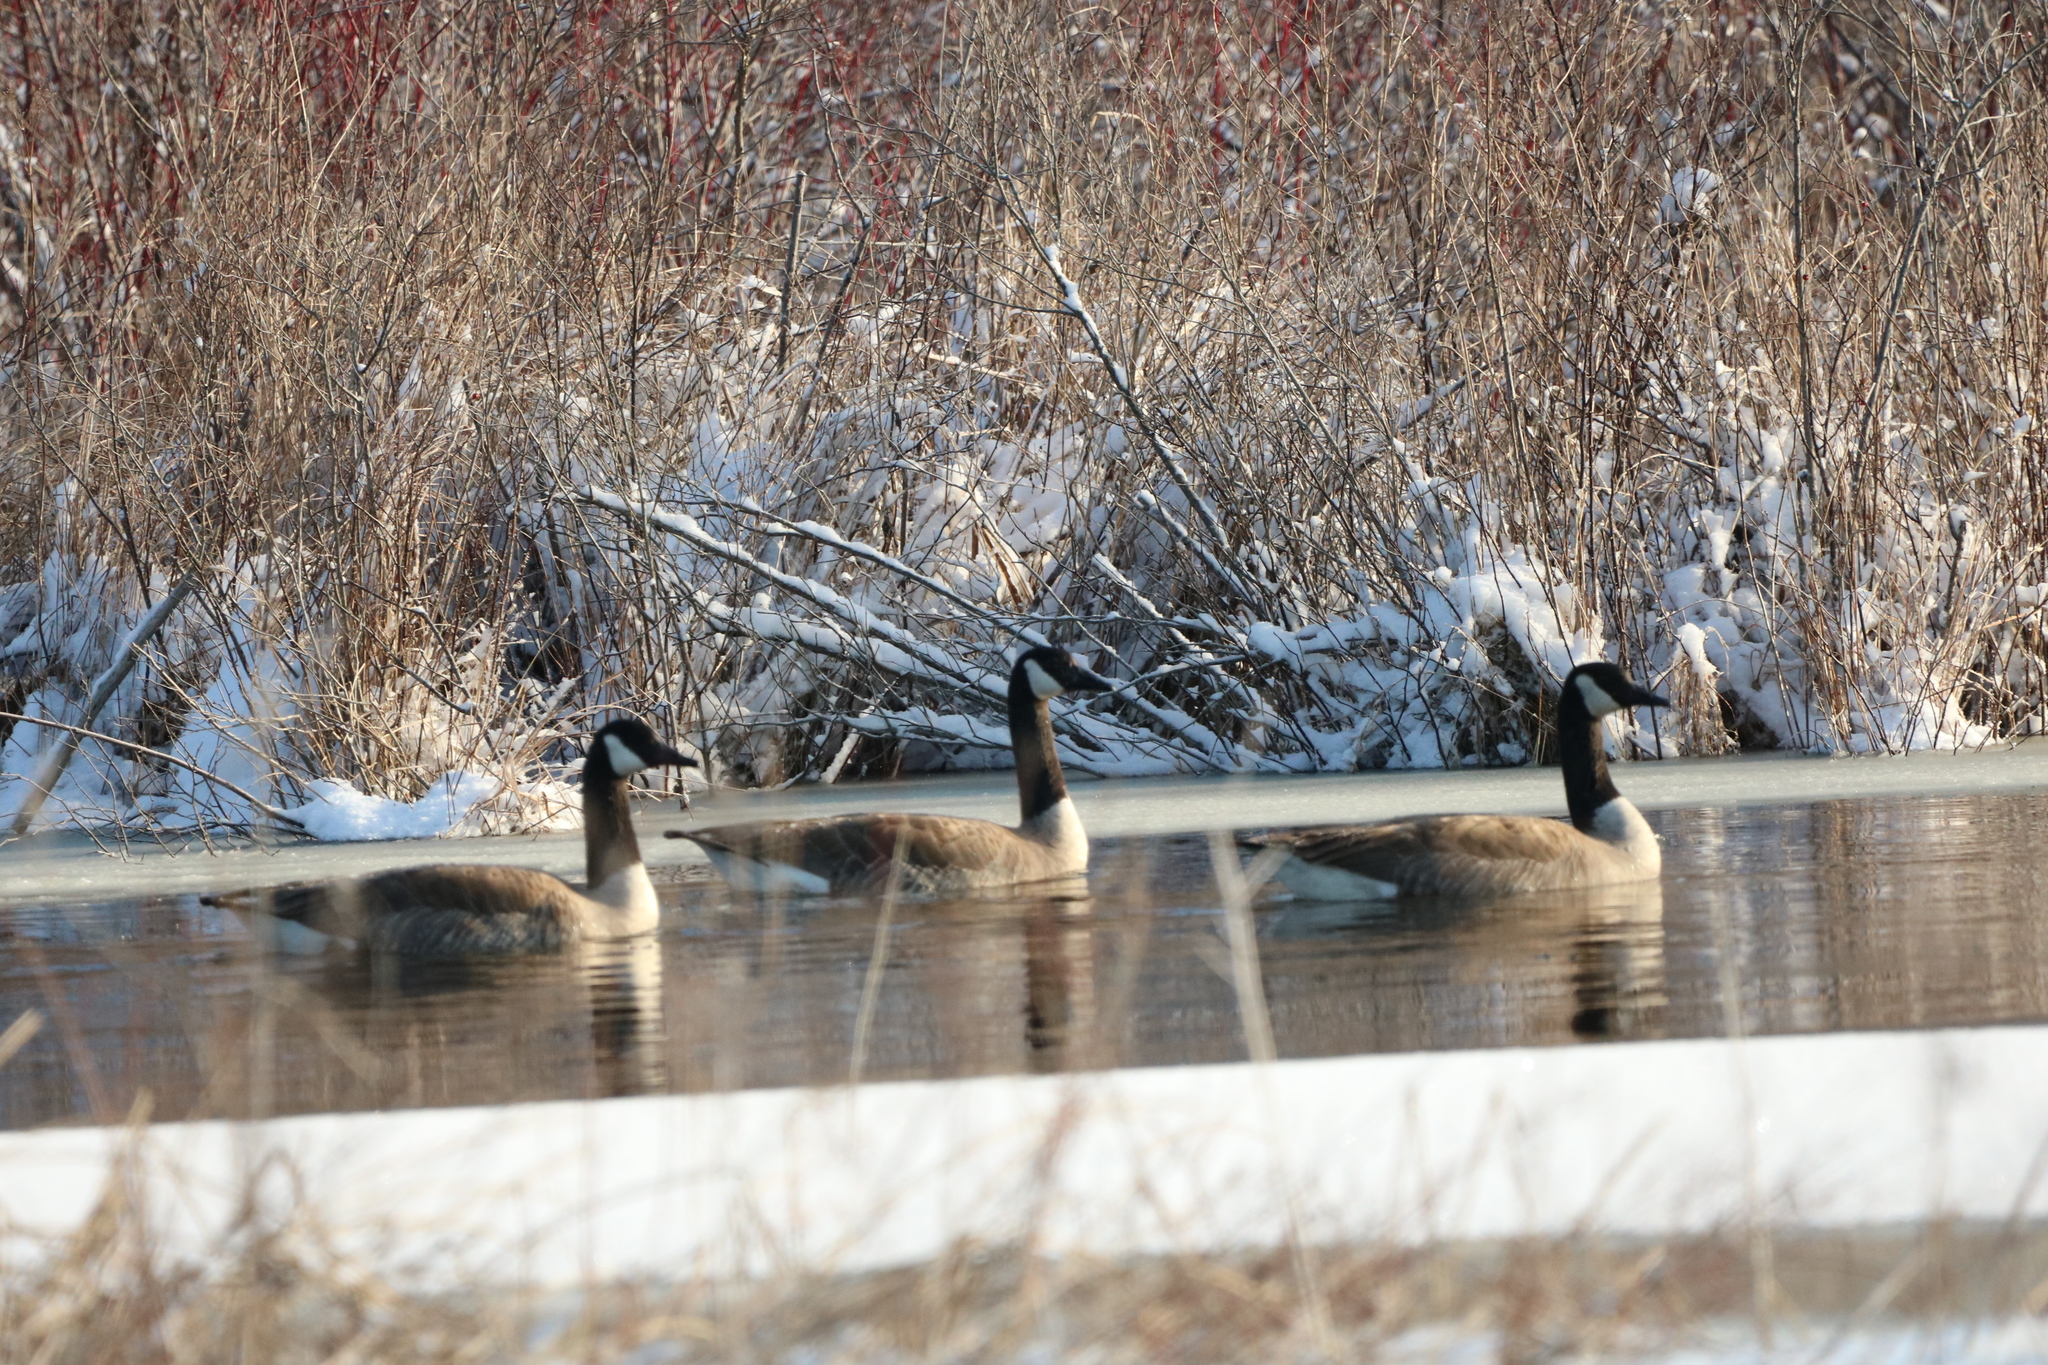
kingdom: Animalia
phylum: Chordata
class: Aves
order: Anseriformes
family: Anatidae
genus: Branta
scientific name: Branta canadensis
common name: Canada goose
